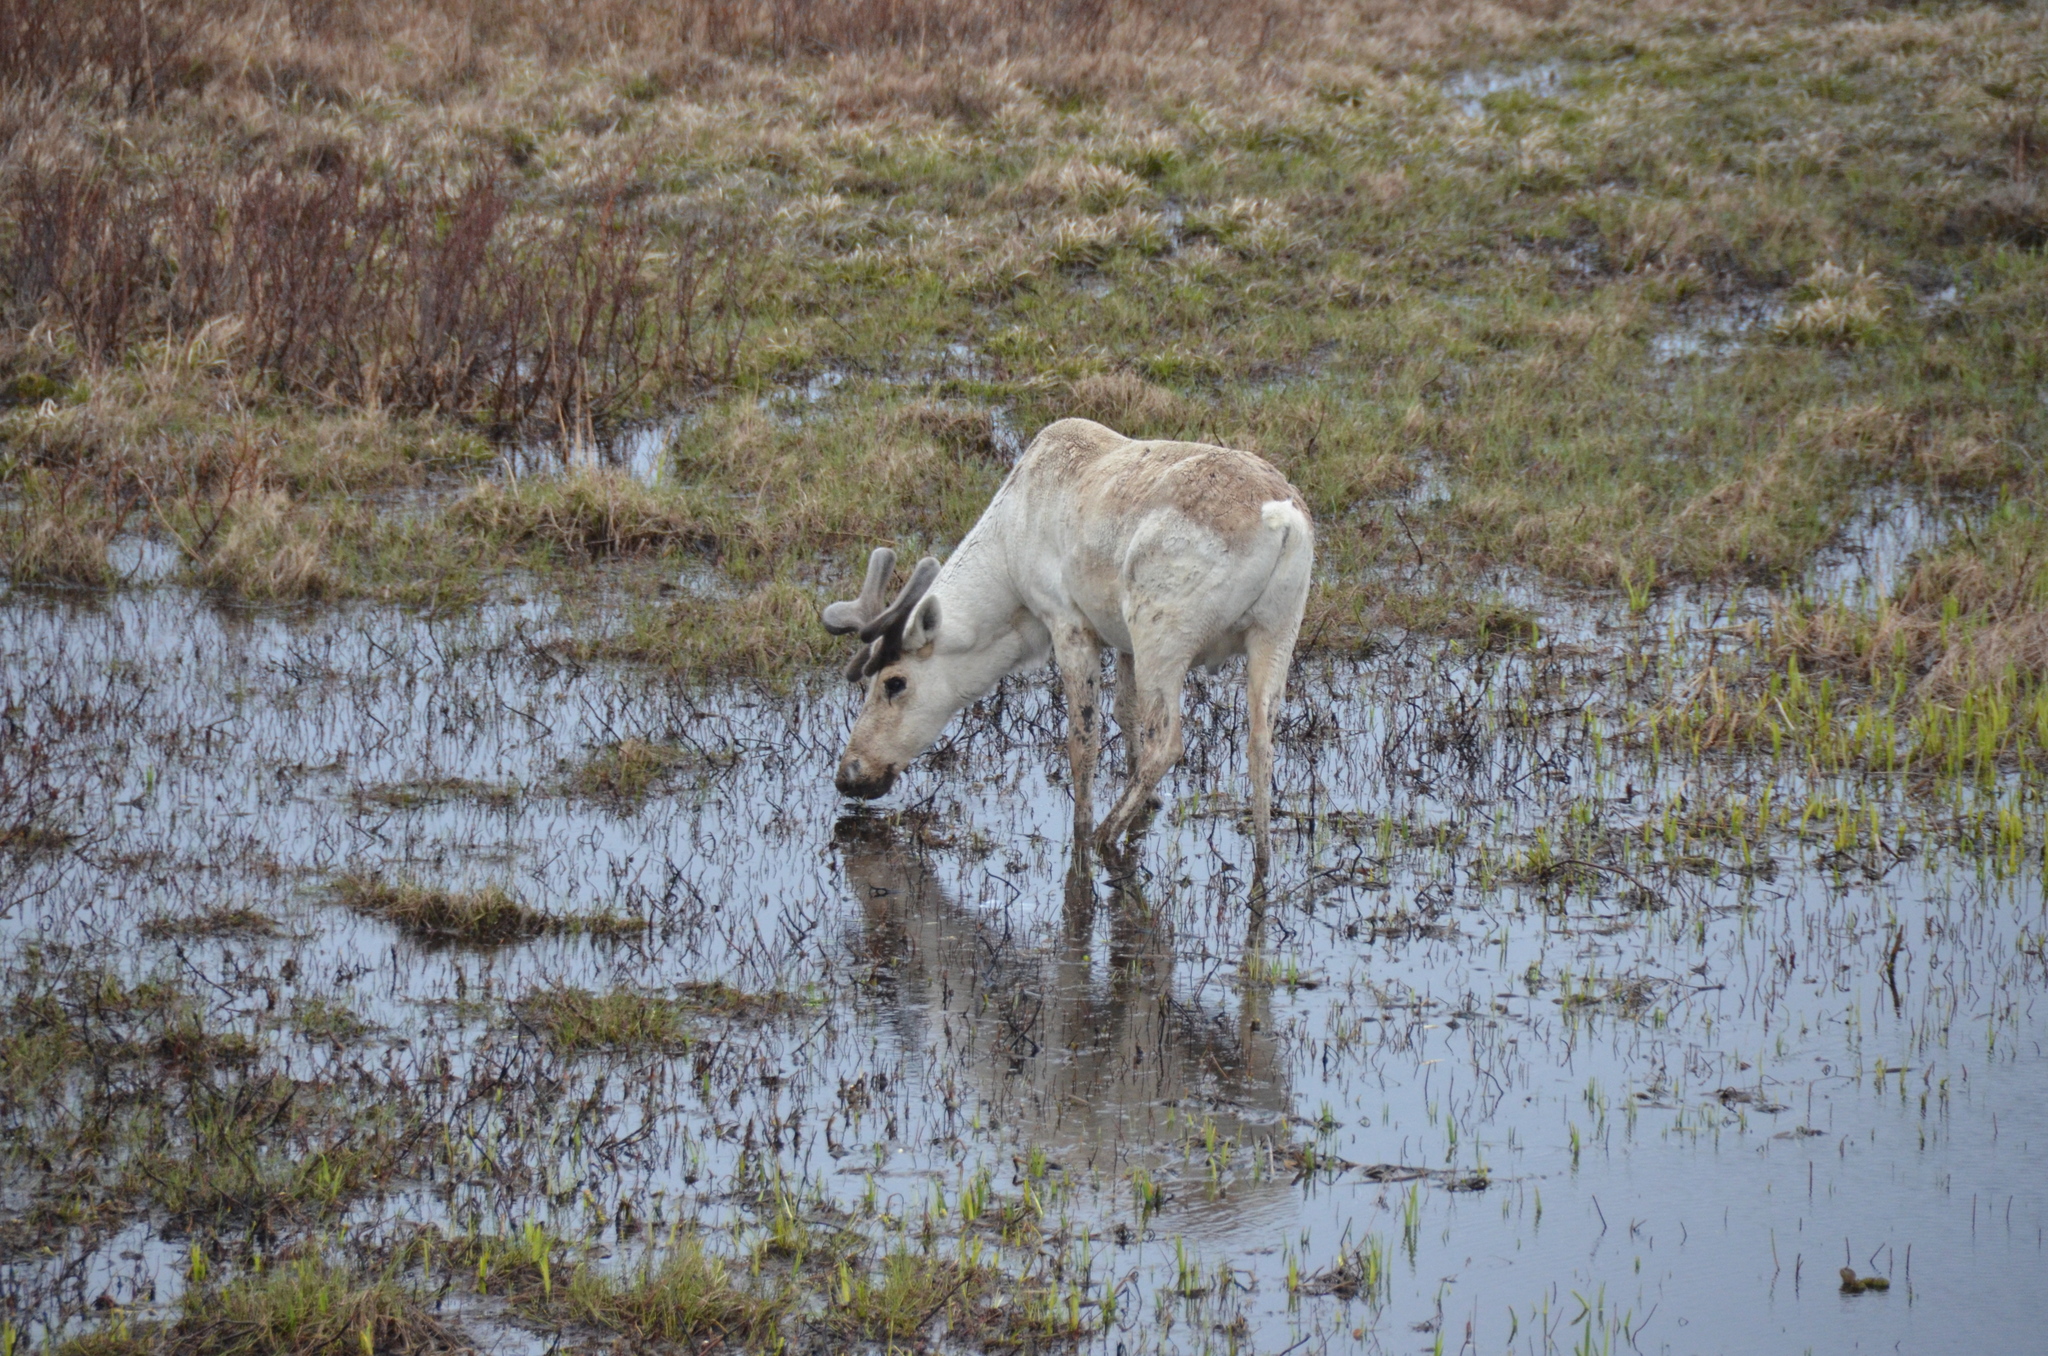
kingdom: Animalia
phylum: Chordata
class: Mammalia
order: Artiodactyla
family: Cervidae
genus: Rangifer
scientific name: Rangifer tarandus
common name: Reindeer
